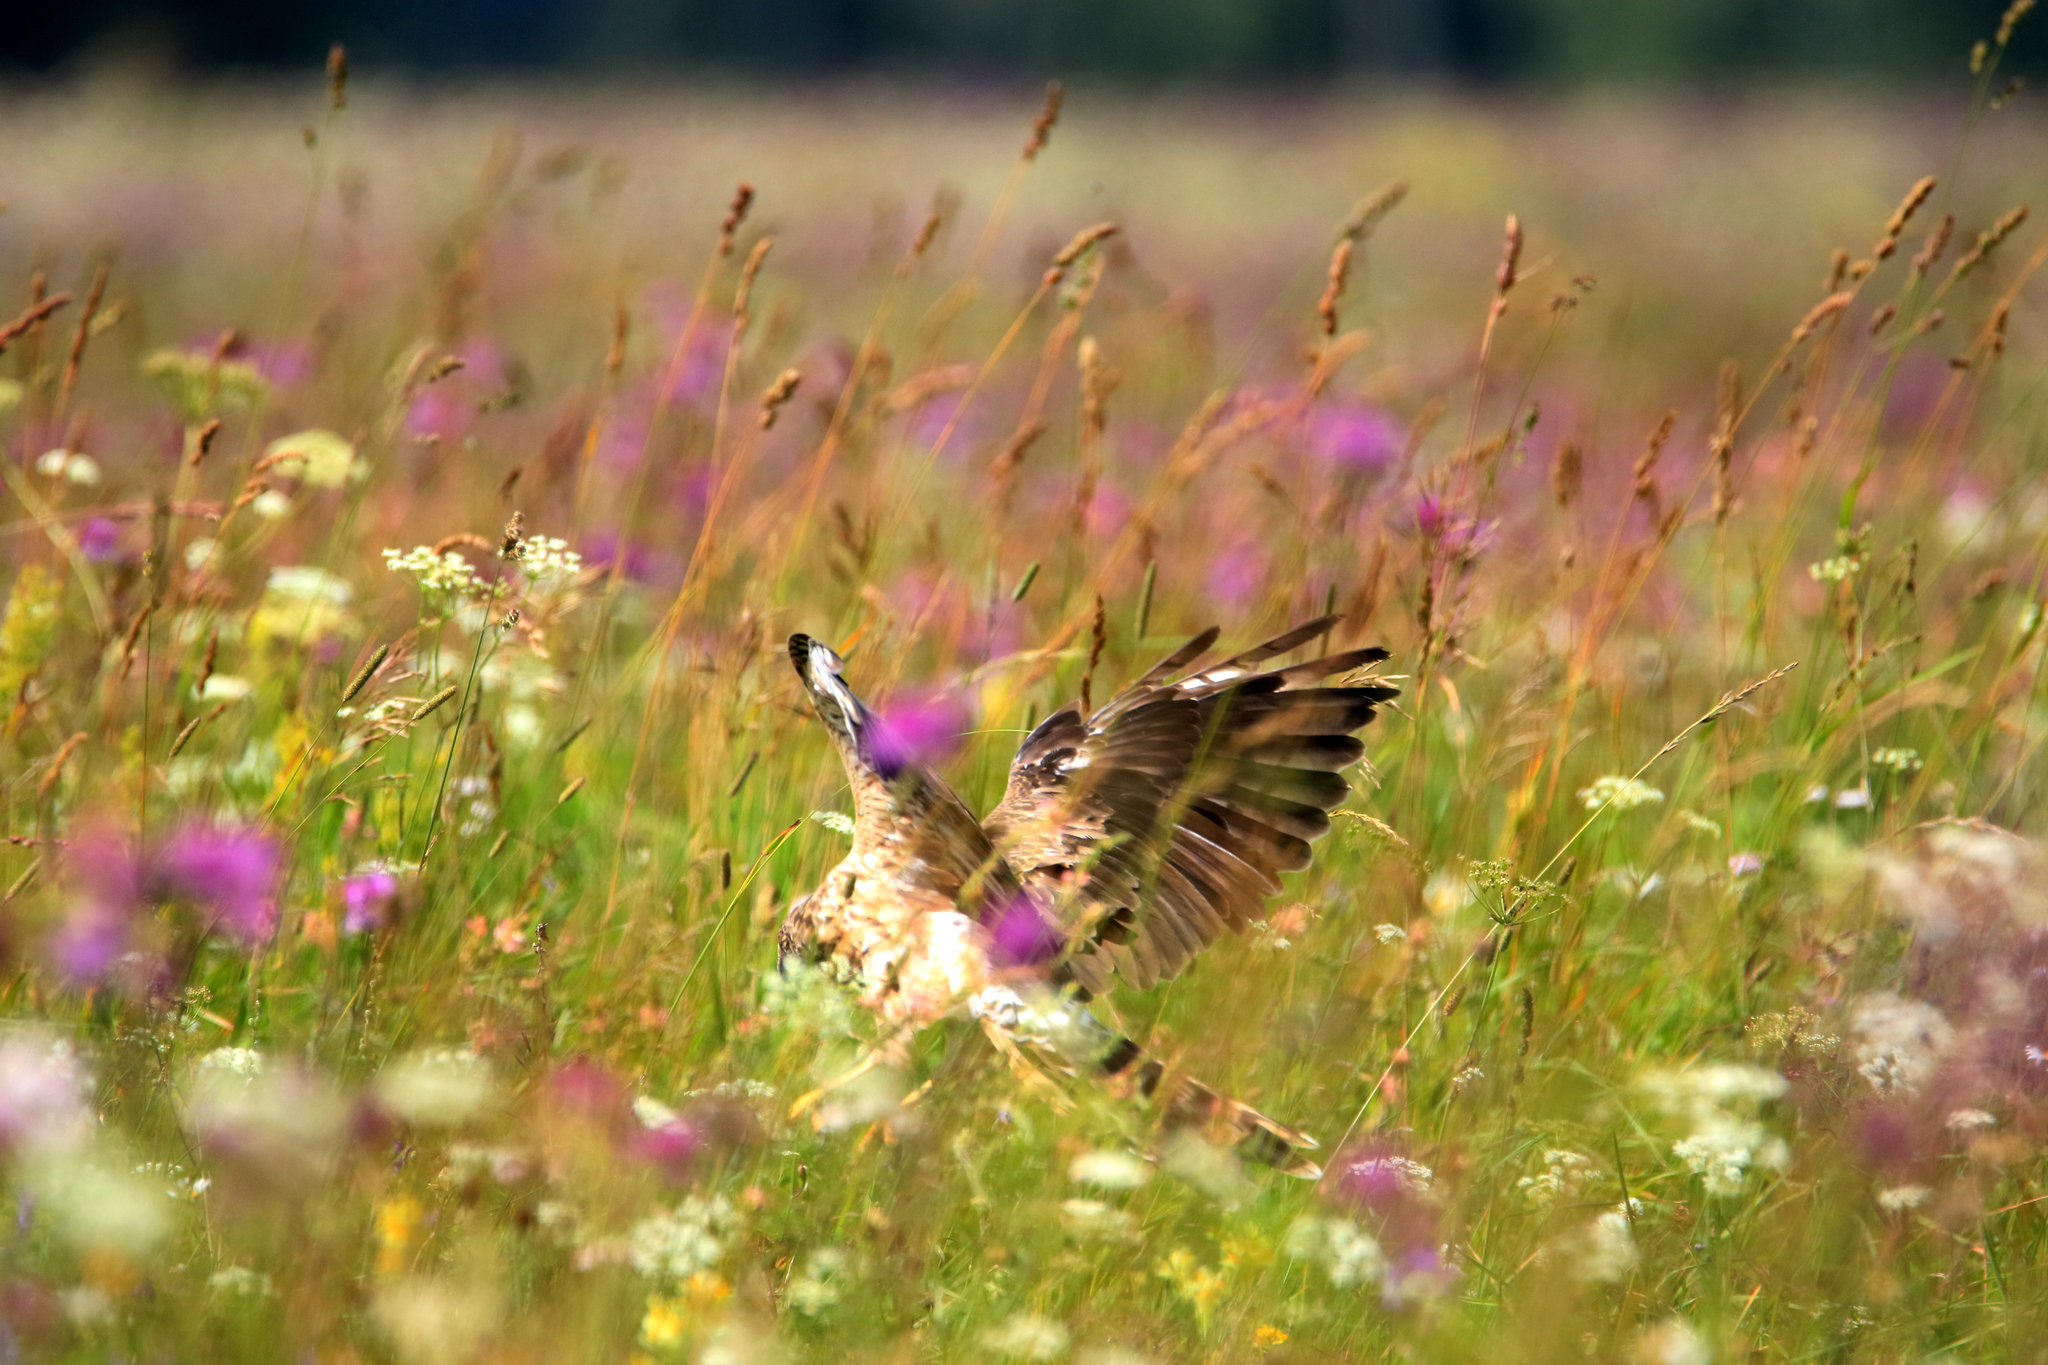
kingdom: Animalia
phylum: Chordata
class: Aves
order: Accipitriformes
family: Accipitridae
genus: Circus
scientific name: Circus cyaneus
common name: Hen harrier
